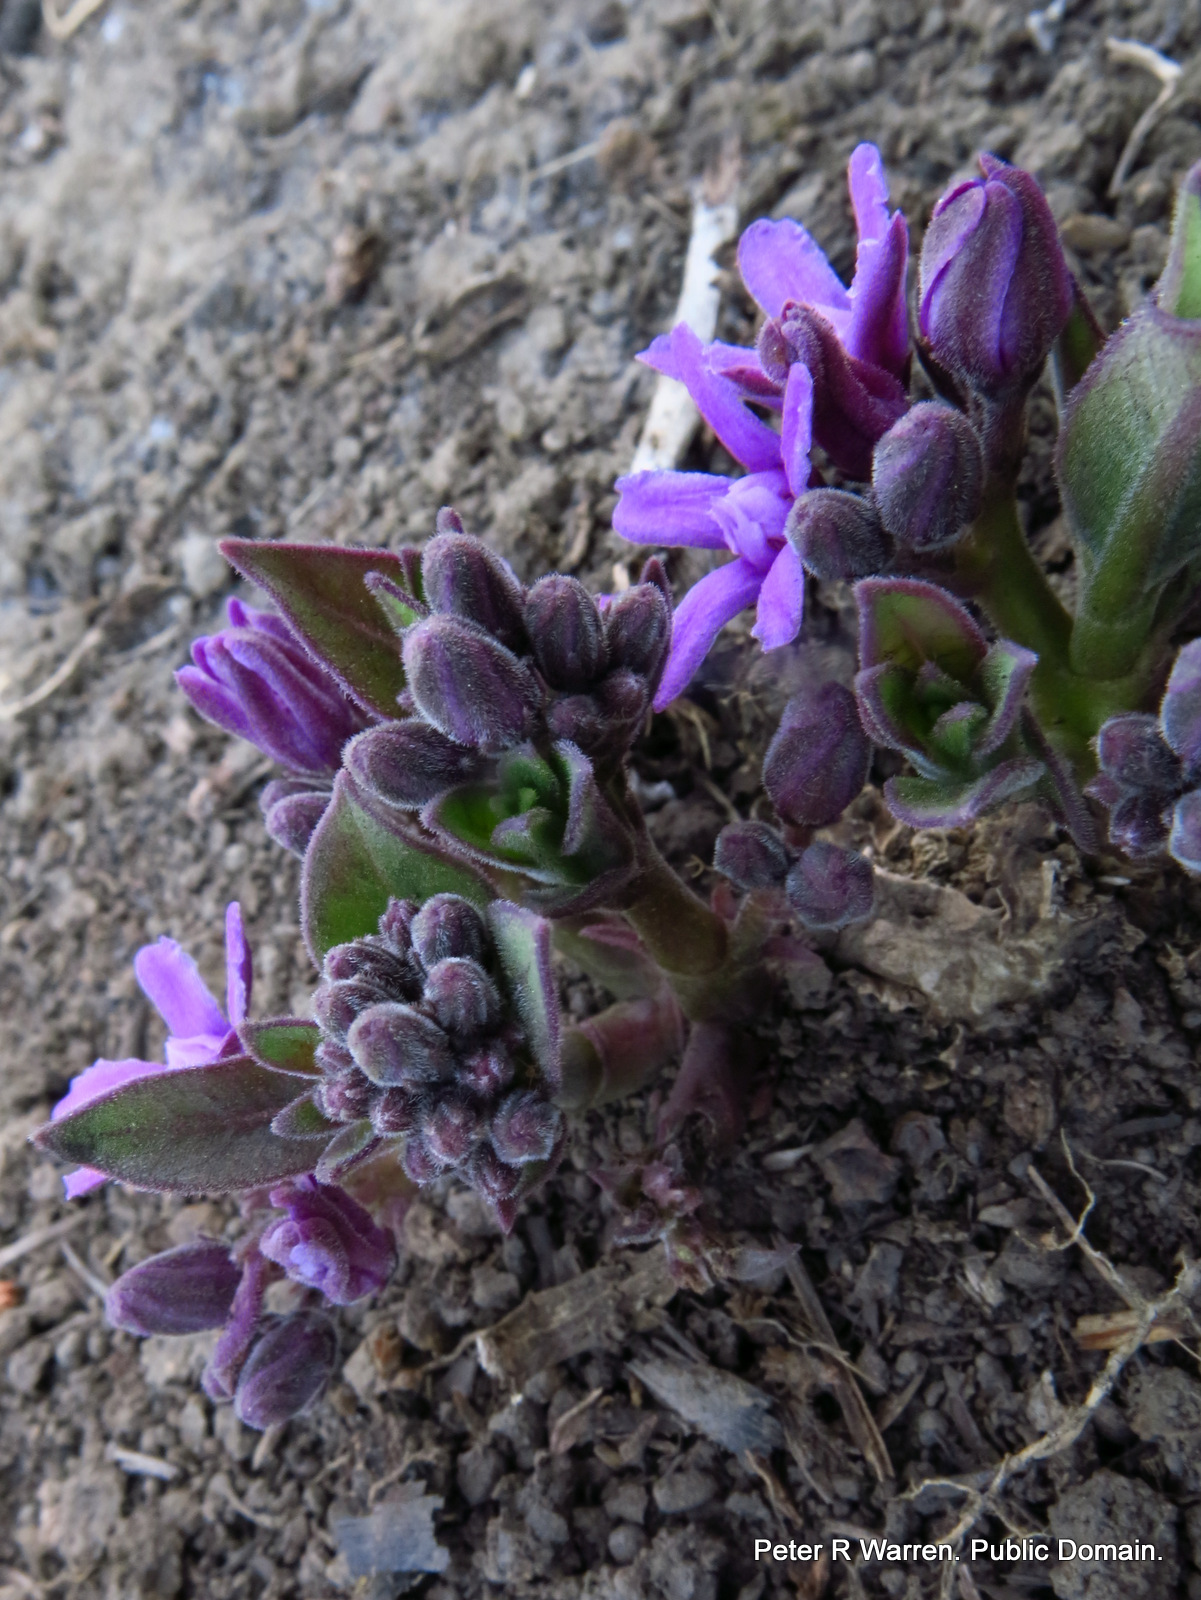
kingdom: Plantae
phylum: Tracheophyta
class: Magnoliopsida
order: Gentianales
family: Apocynaceae
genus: Raphionacme
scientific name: Raphionacme hirsuta
